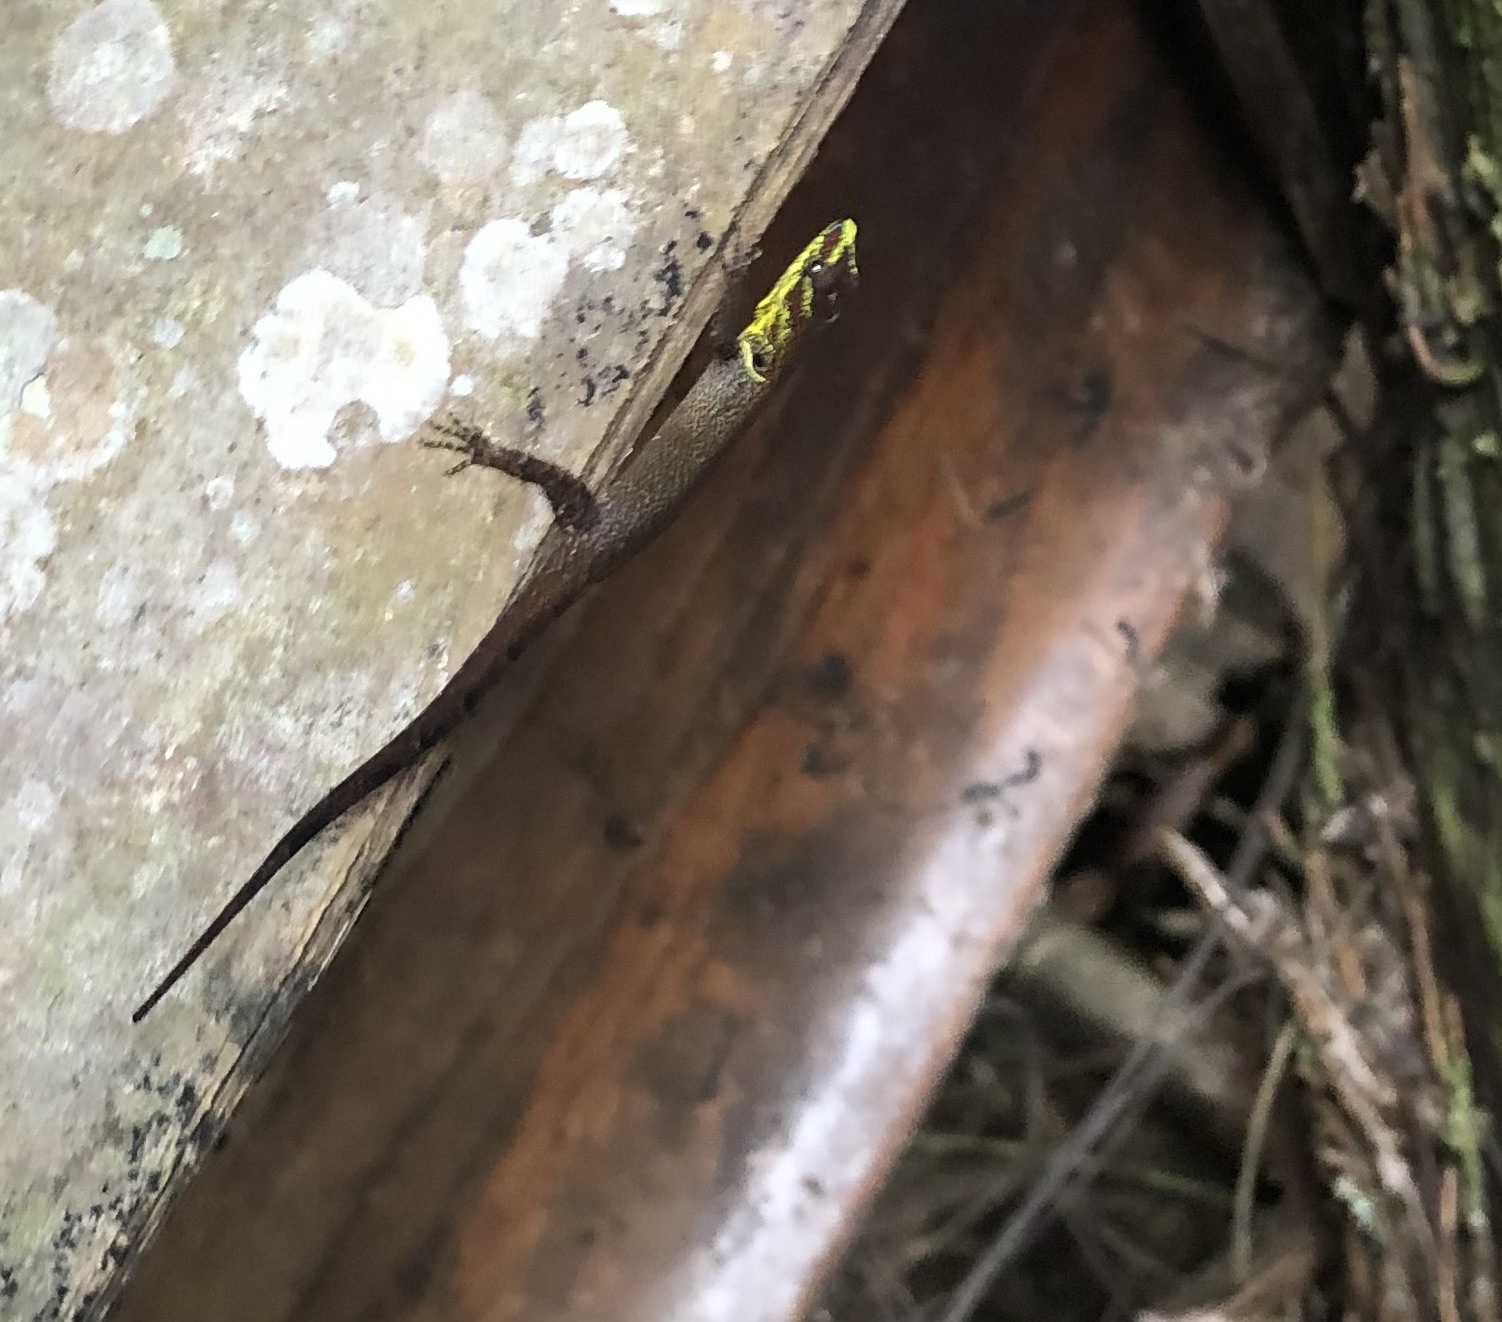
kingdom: Animalia
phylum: Chordata
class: Squamata
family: Sphaerodactylidae
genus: Gonatodes
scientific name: Gonatodes humeralis
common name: South american clawed gecko
